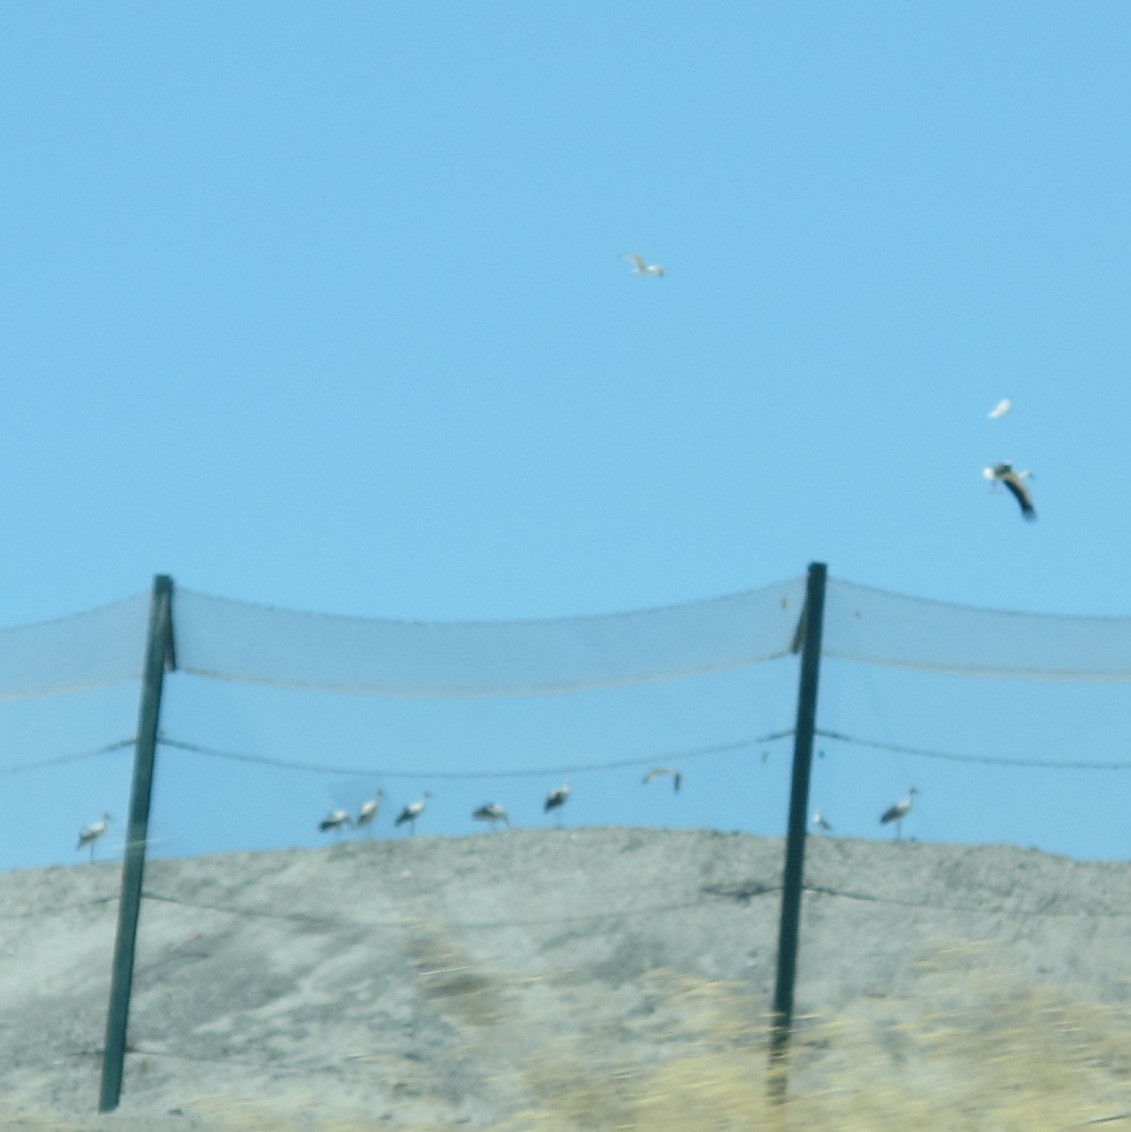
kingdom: Animalia
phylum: Chordata
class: Aves
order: Ciconiiformes
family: Ciconiidae
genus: Ciconia
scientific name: Ciconia ciconia
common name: White stork
